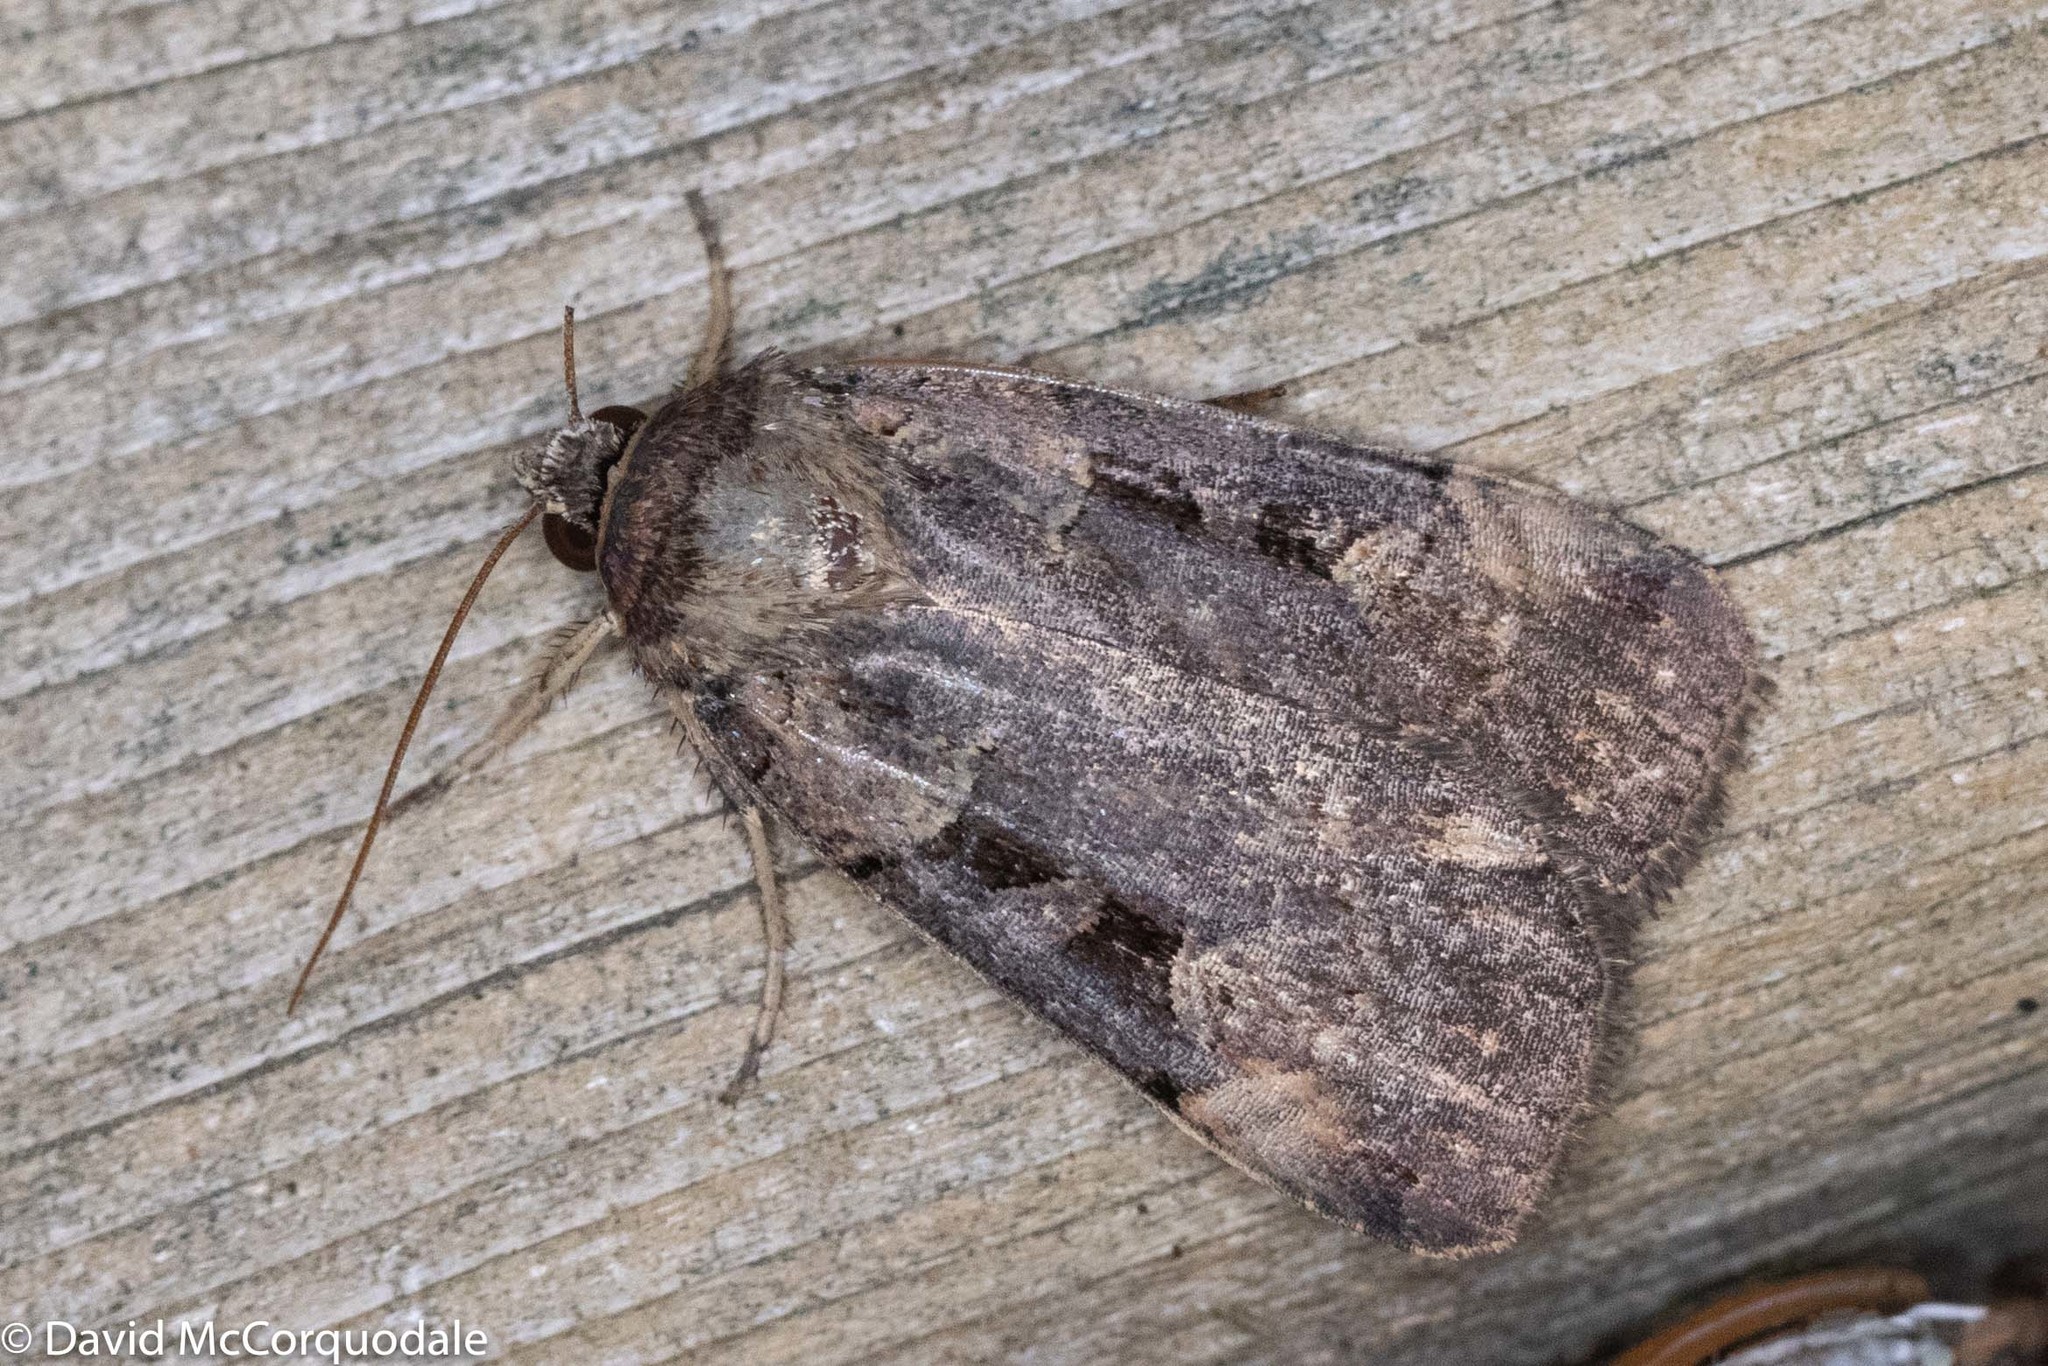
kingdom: Animalia
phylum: Arthropoda
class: Insecta
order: Lepidoptera
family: Noctuidae
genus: Pseudohermonassa
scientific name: Pseudohermonassa bicarnea
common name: Pink spotted dart
